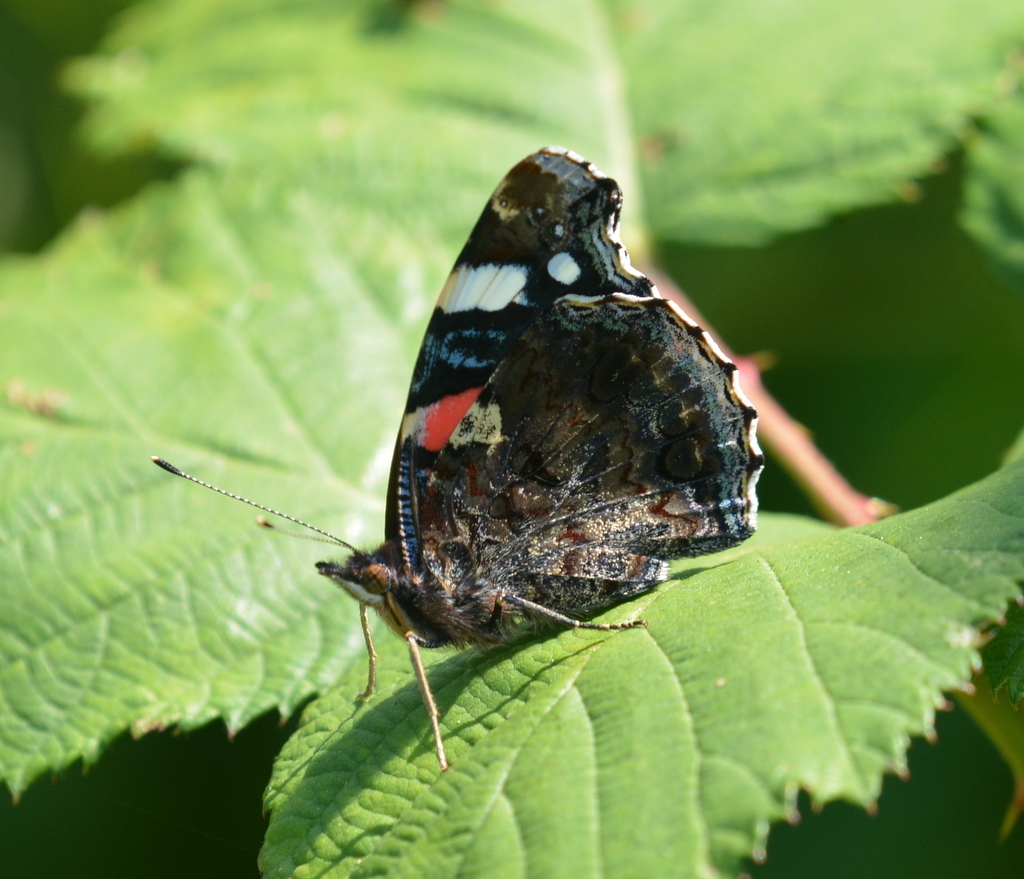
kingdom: Animalia
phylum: Arthropoda
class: Insecta
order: Lepidoptera
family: Nymphalidae
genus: Vanessa
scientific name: Vanessa atalanta
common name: Red admiral
